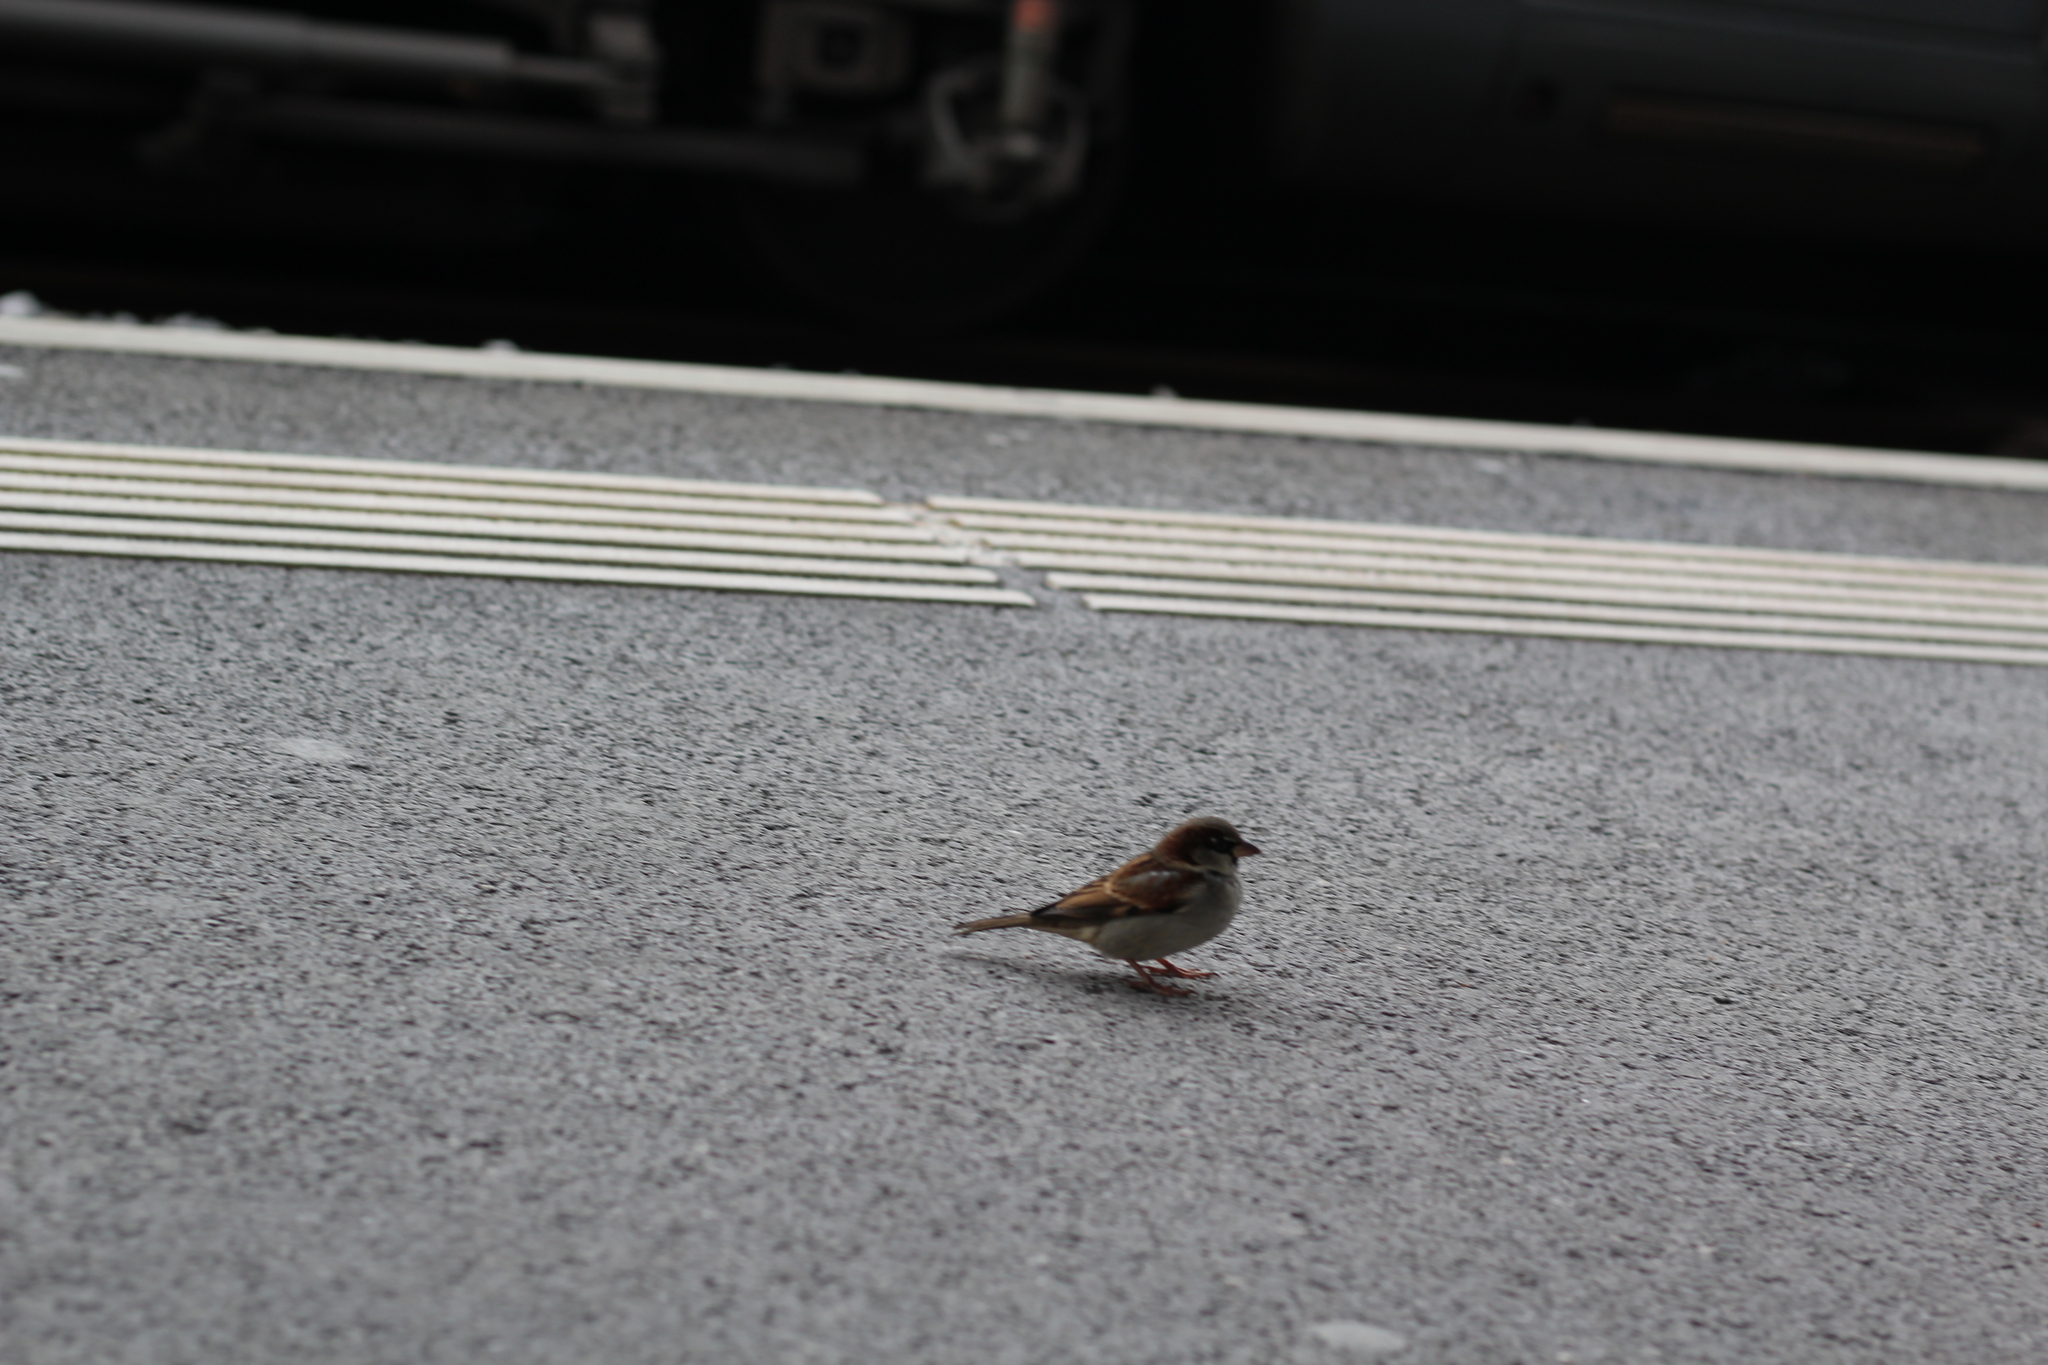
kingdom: Animalia
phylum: Chordata
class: Aves
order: Passeriformes
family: Passeridae
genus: Passer
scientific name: Passer domesticus
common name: House sparrow
